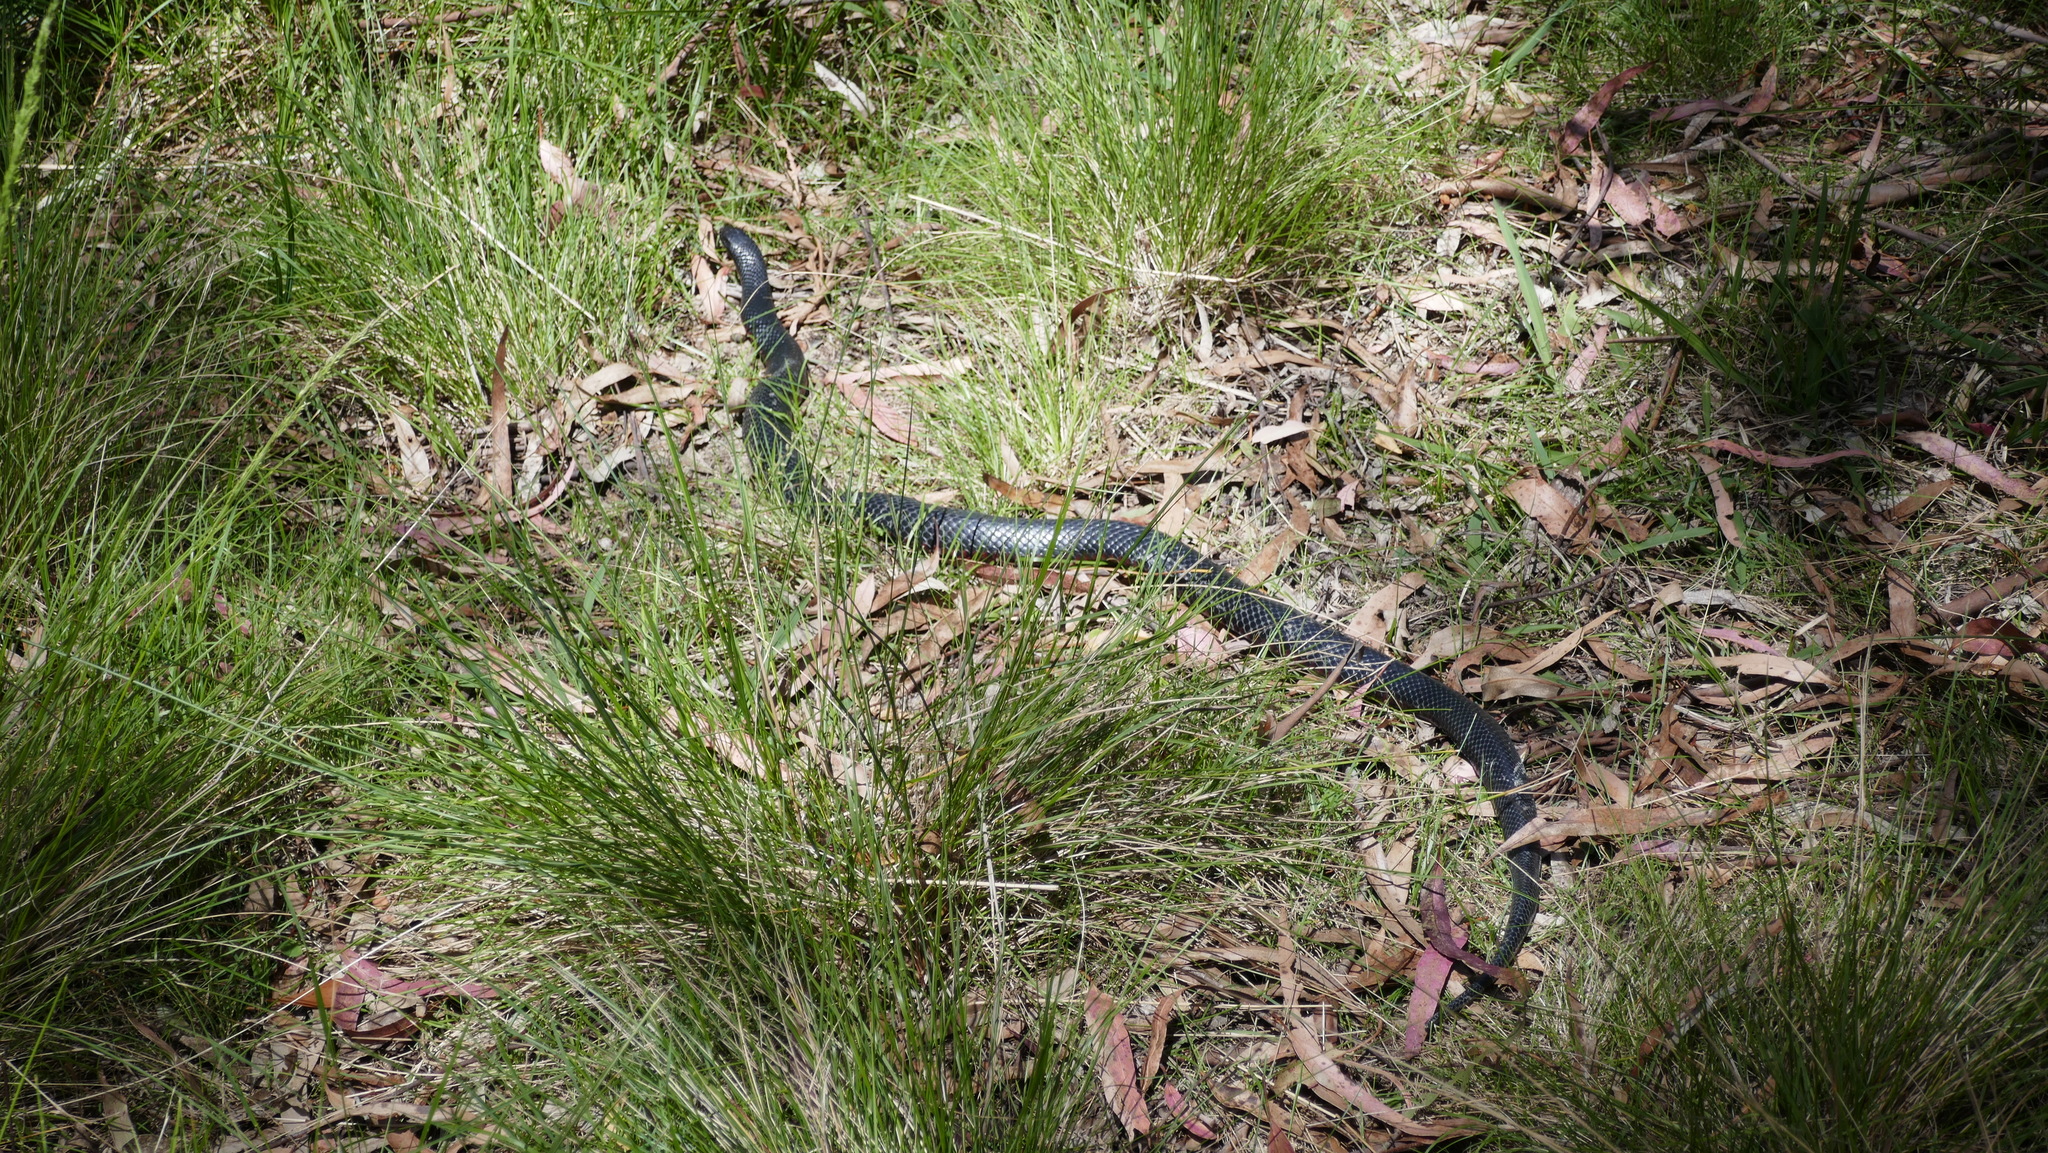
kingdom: Animalia
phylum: Chordata
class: Squamata
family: Elapidae
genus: Pseudechis
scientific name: Pseudechis porphyriacus
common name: Australian black snake
